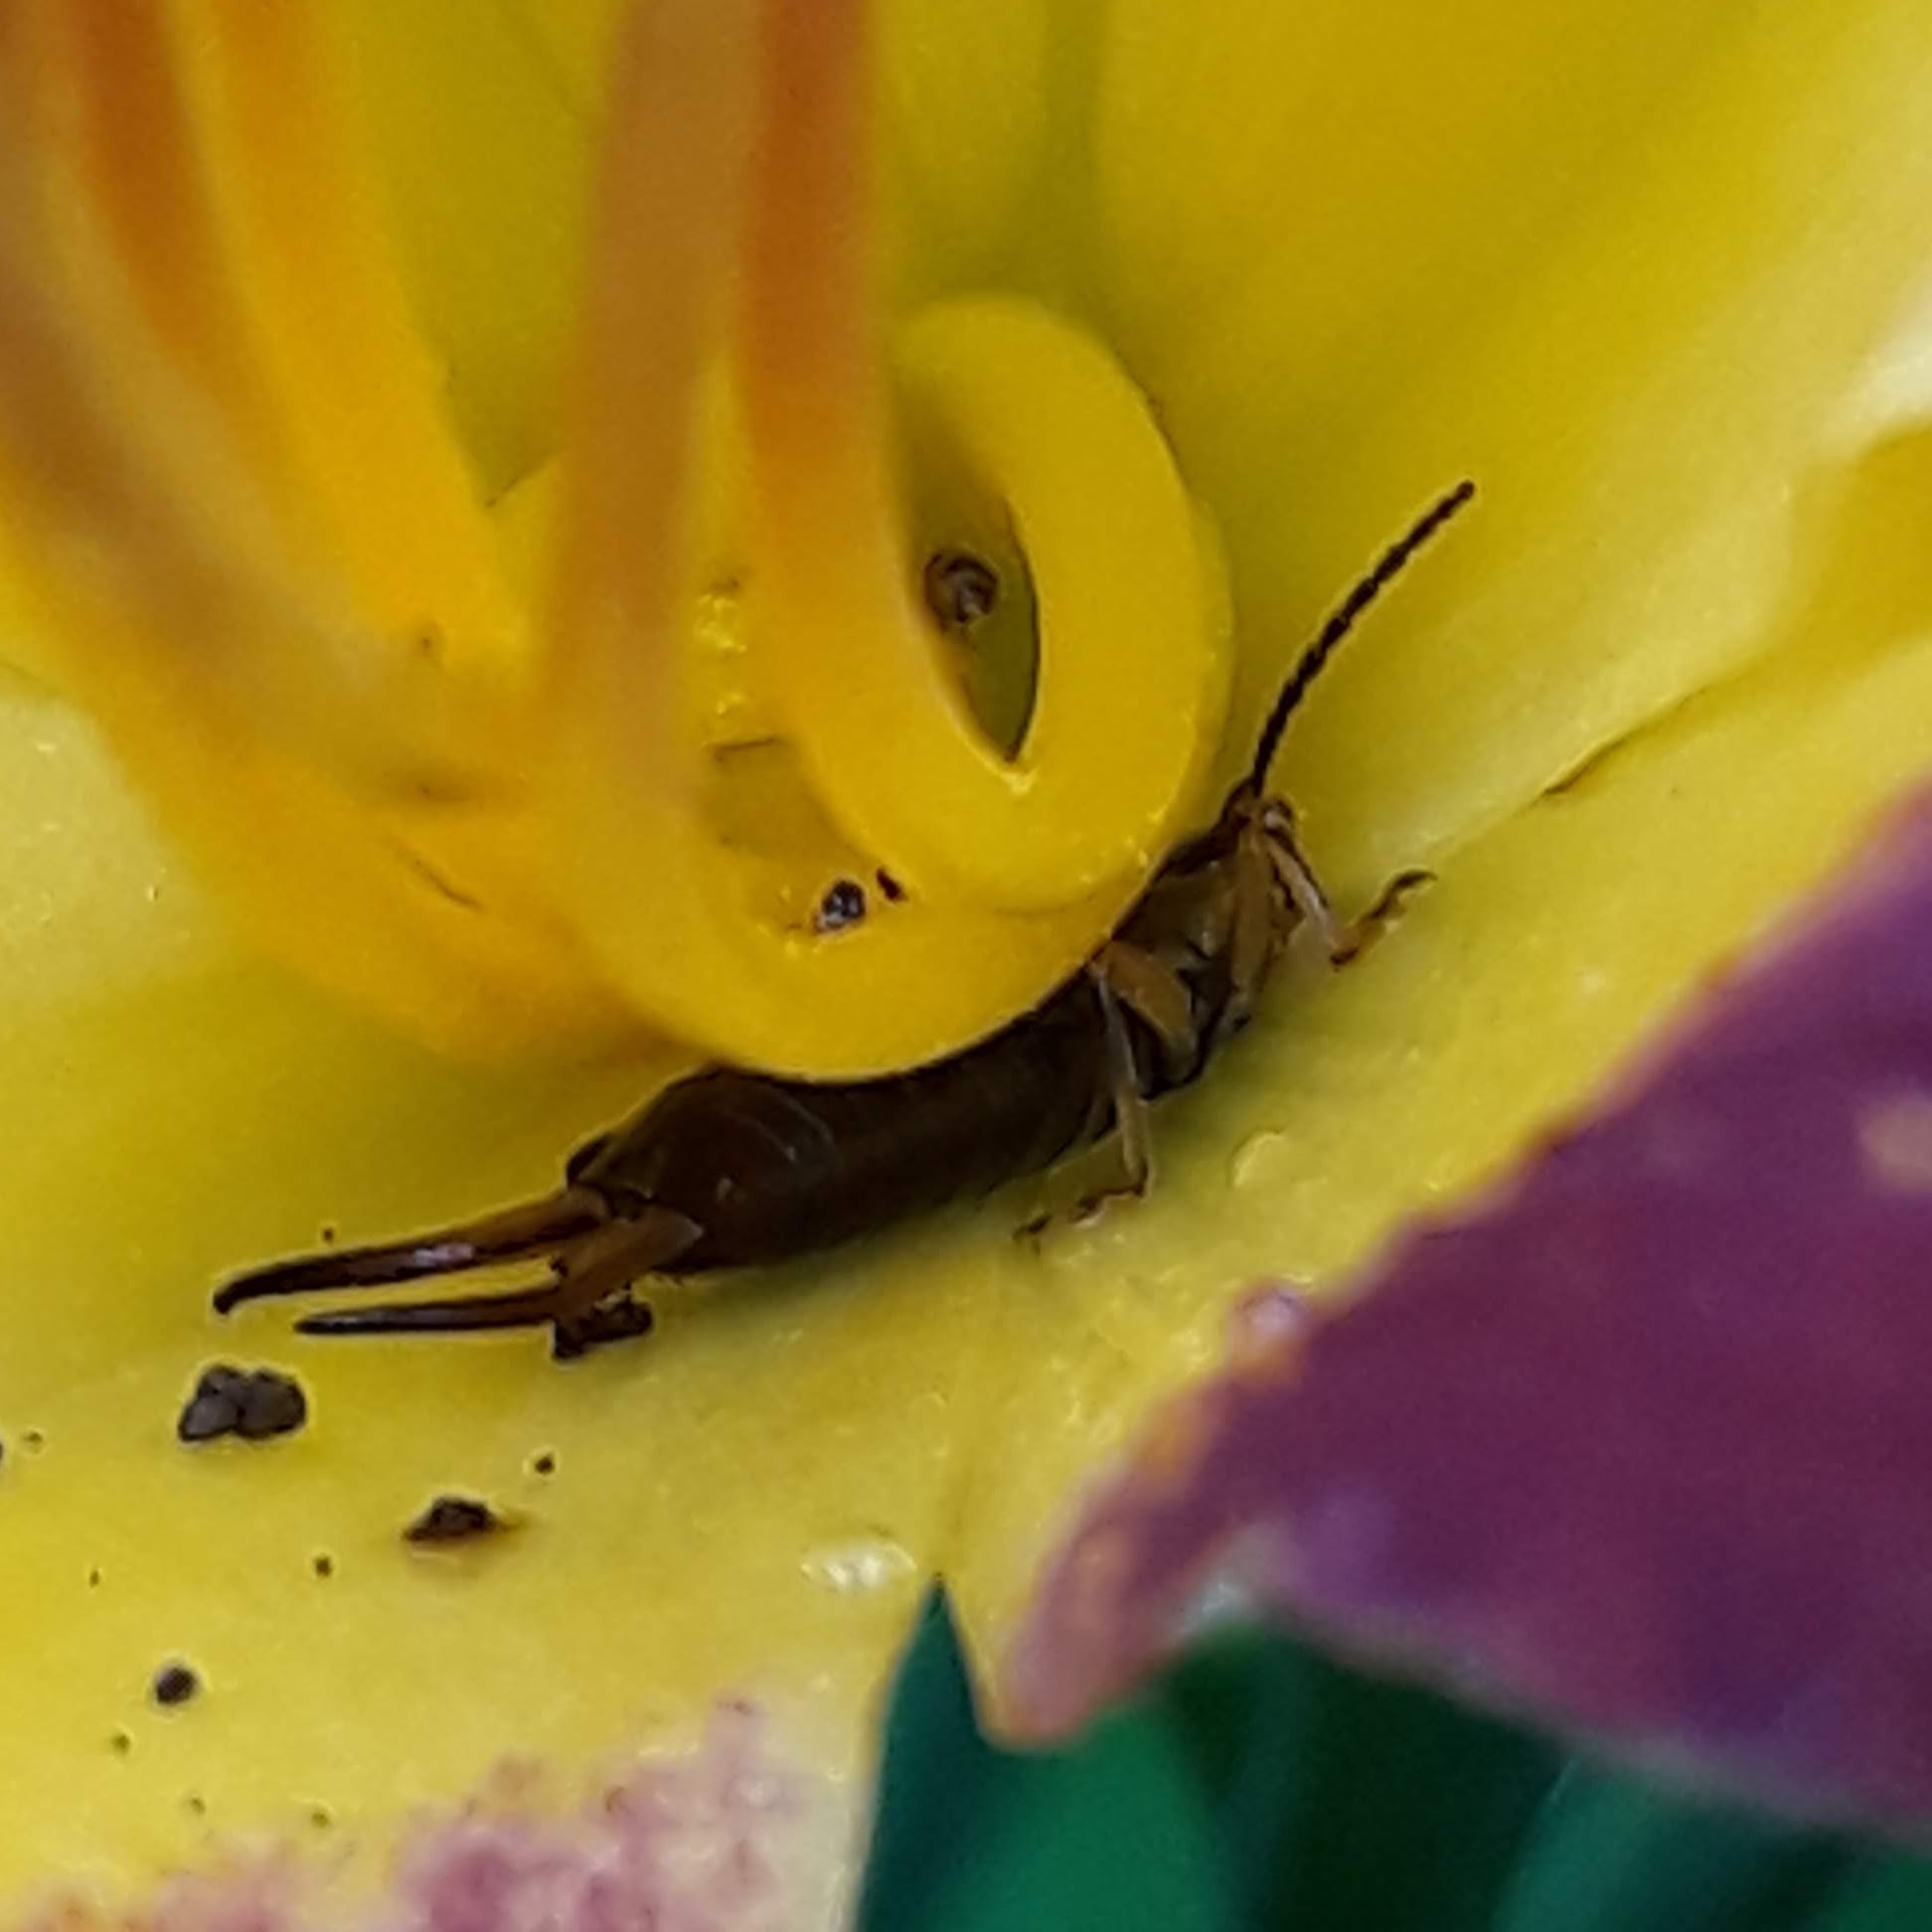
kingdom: Animalia
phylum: Arthropoda
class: Insecta
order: Dermaptera
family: Forficulidae
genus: Forficula
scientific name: Forficula
